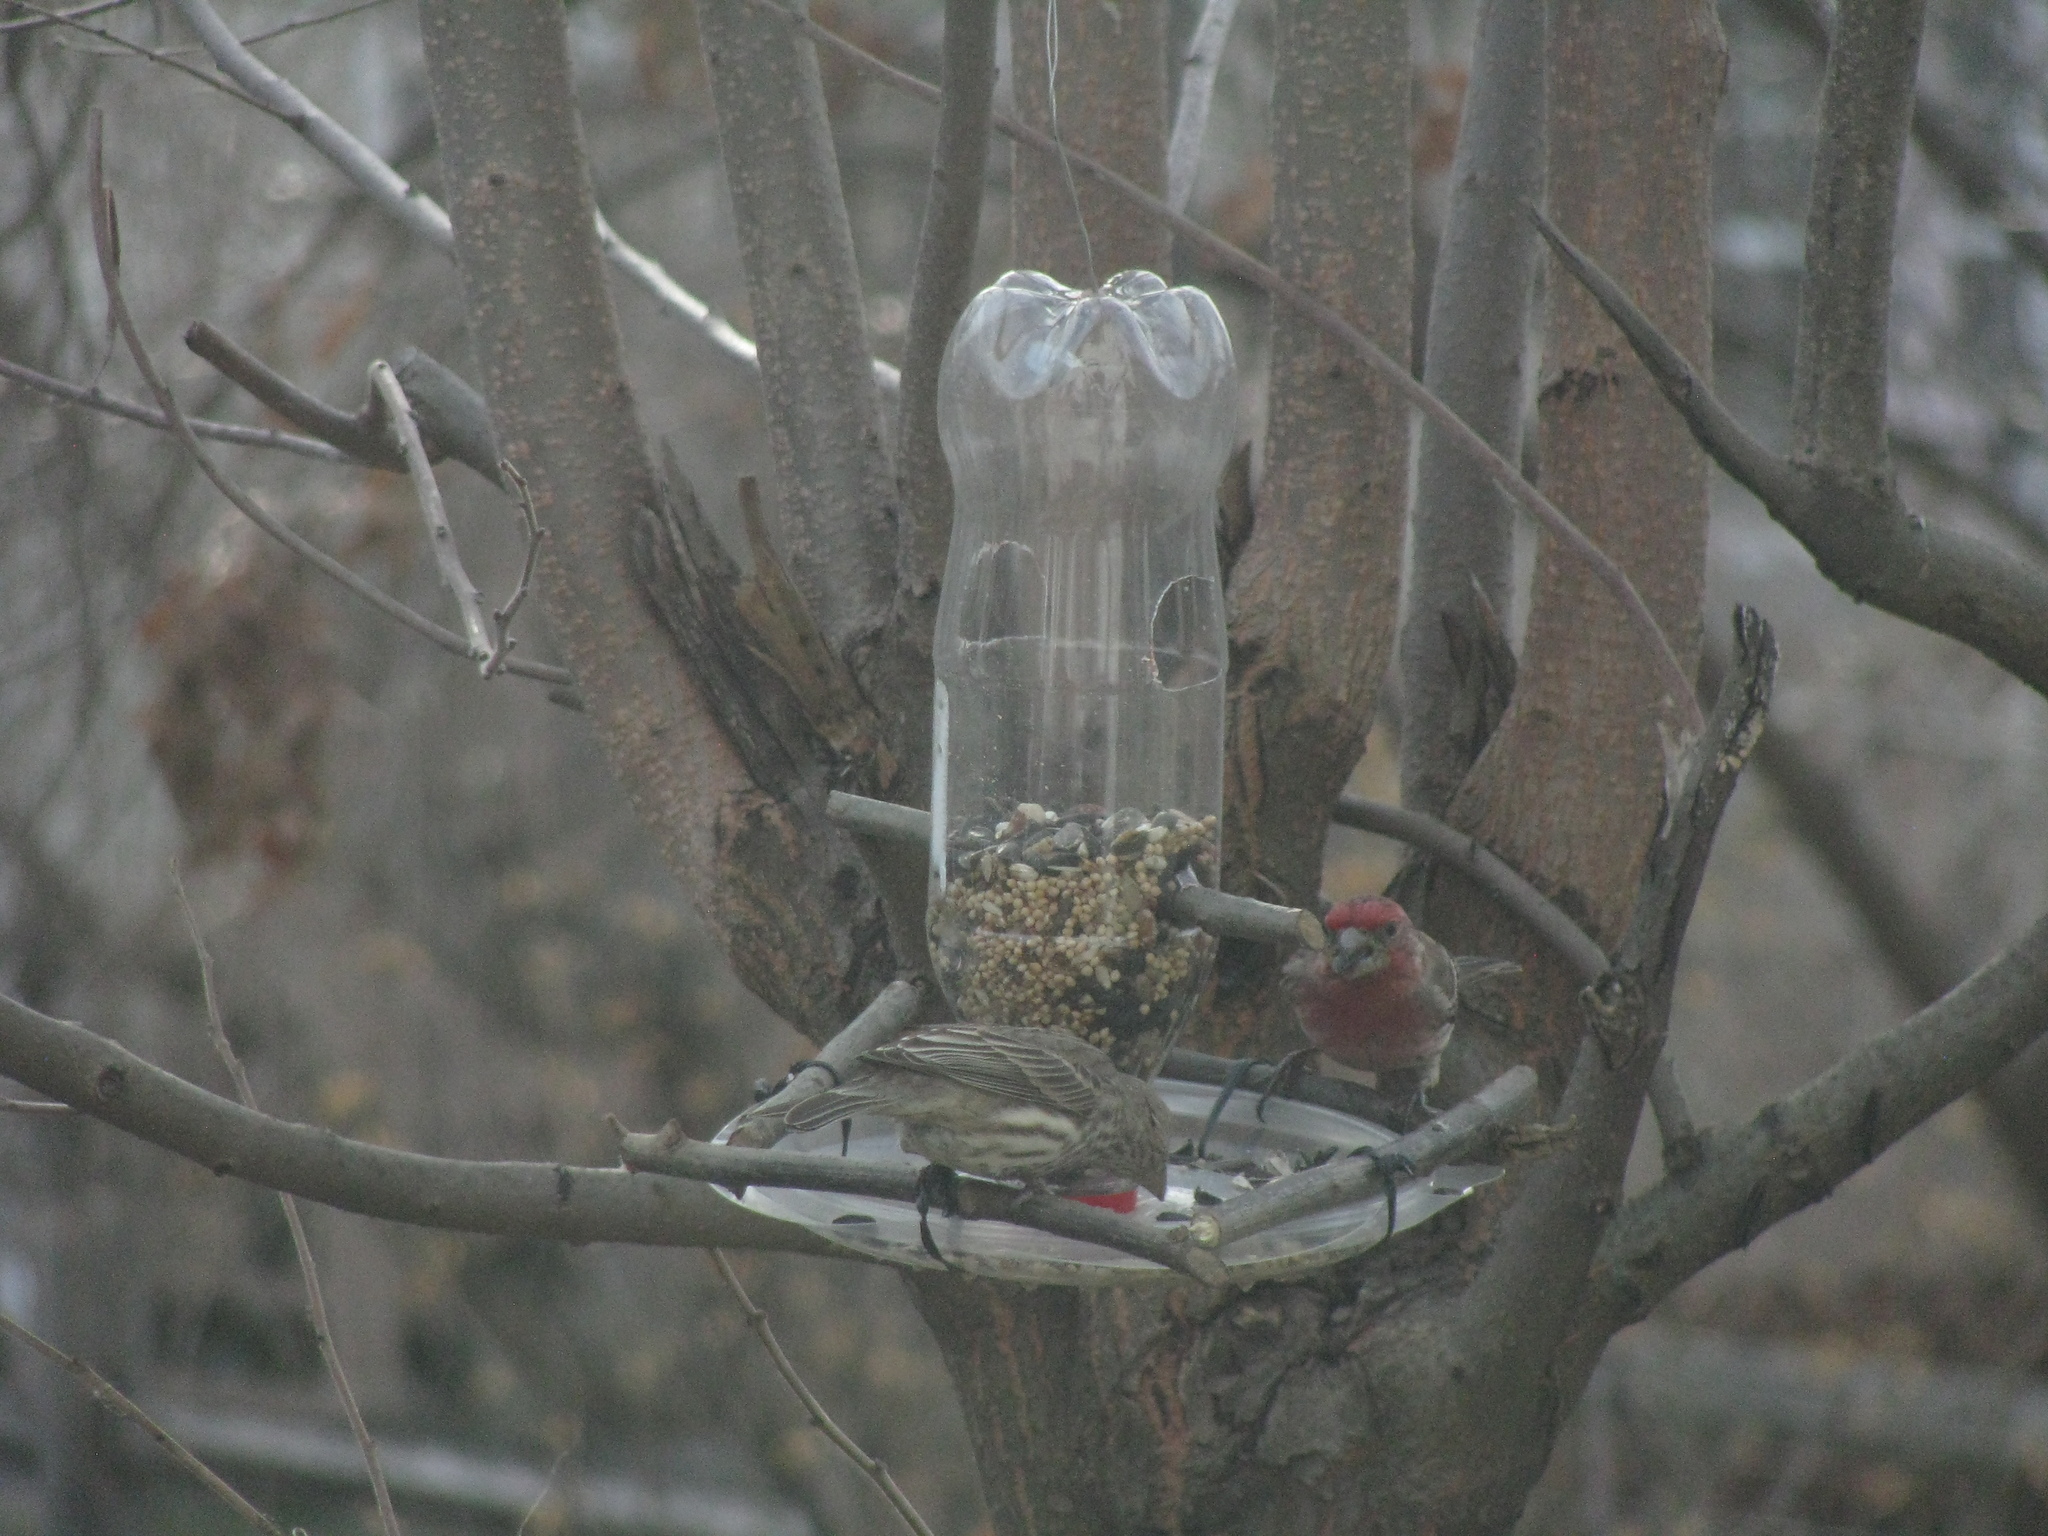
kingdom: Animalia
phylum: Chordata
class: Aves
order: Passeriformes
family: Fringillidae
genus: Haemorhous
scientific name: Haemorhous mexicanus
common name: House finch
